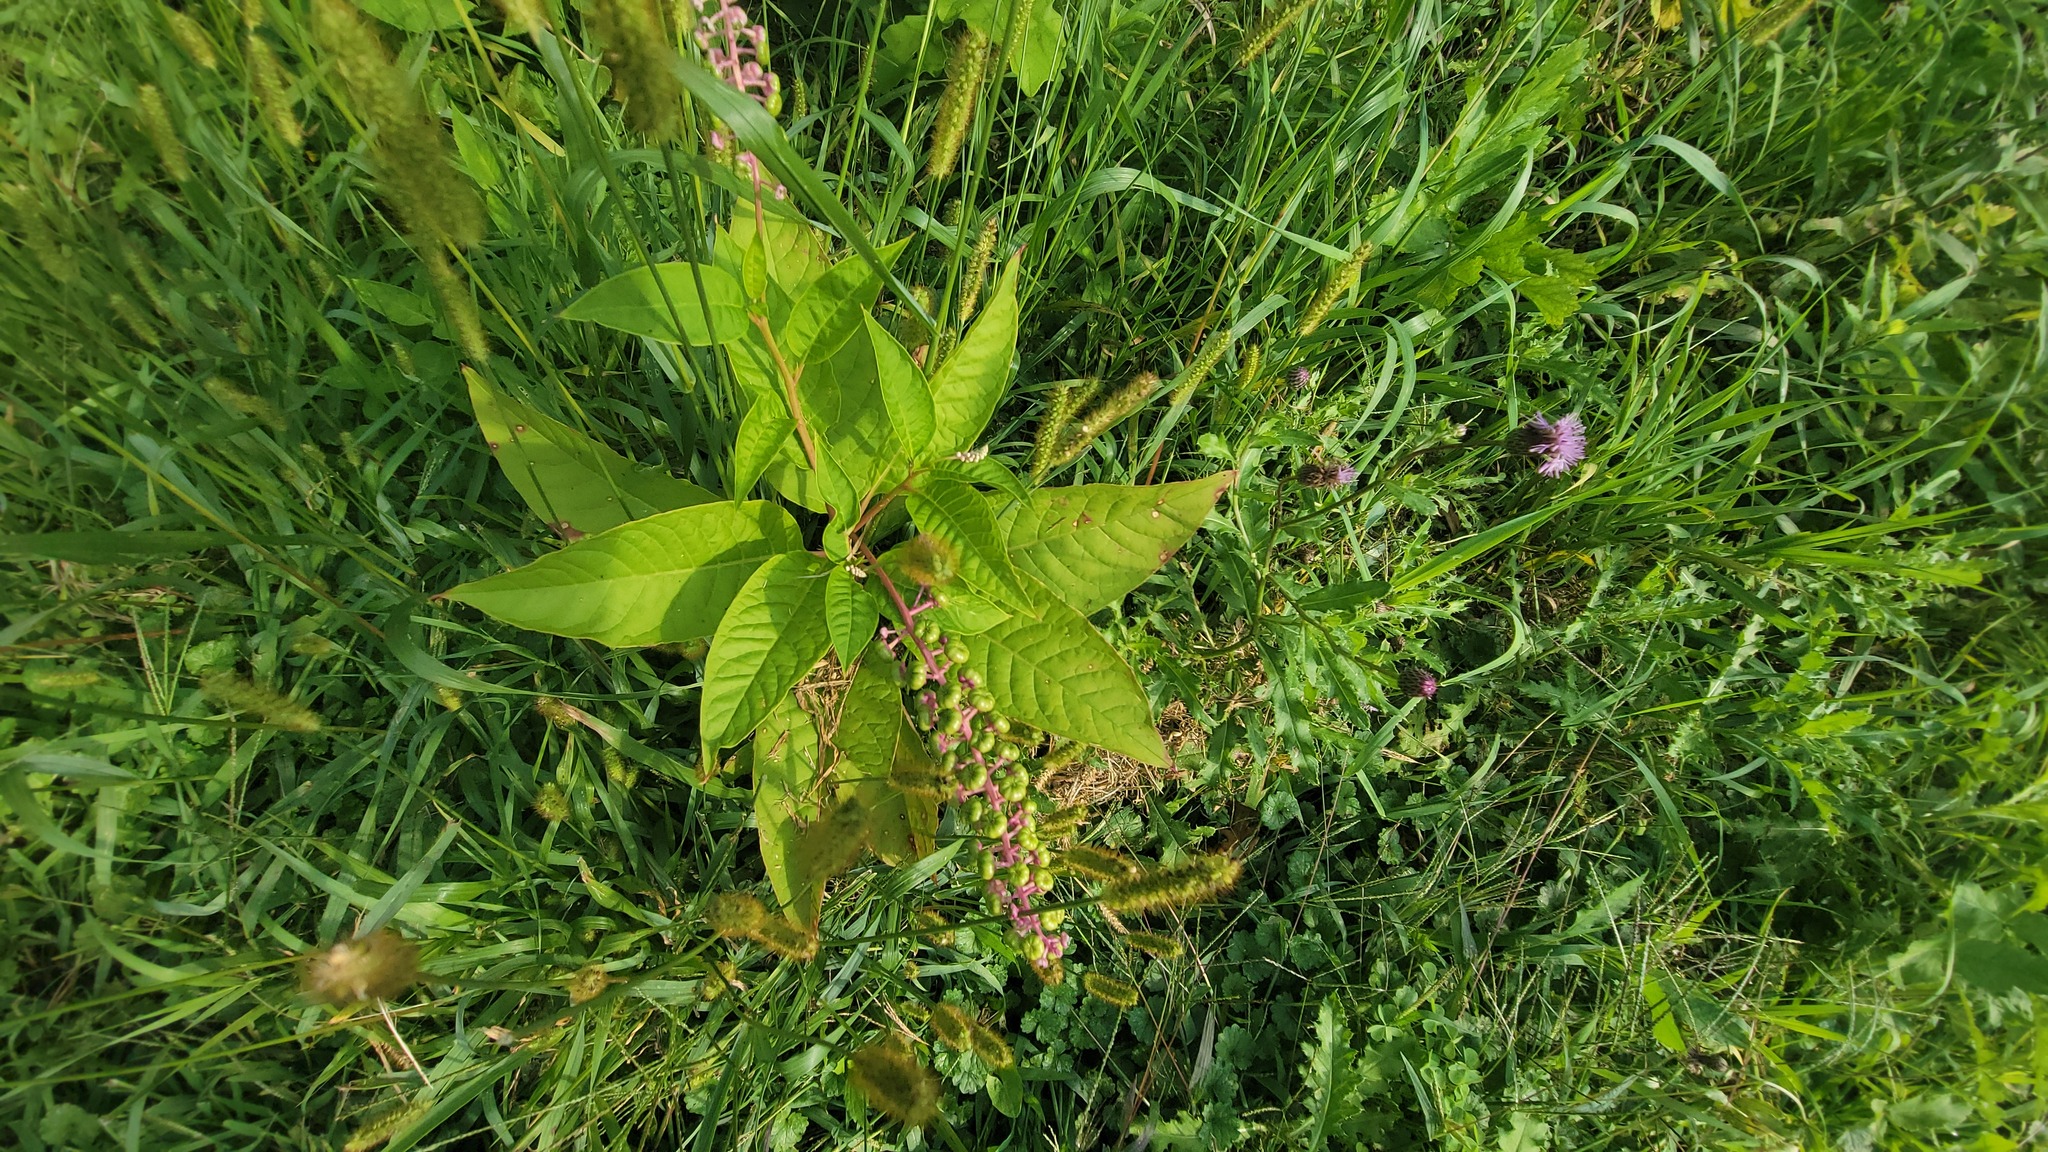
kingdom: Plantae
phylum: Tracheophyta
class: Magnoliopsida
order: Caryophyllales
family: Phytolaccaceae
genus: Phytolacca
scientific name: Phytolacca americana
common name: American pokeweed
